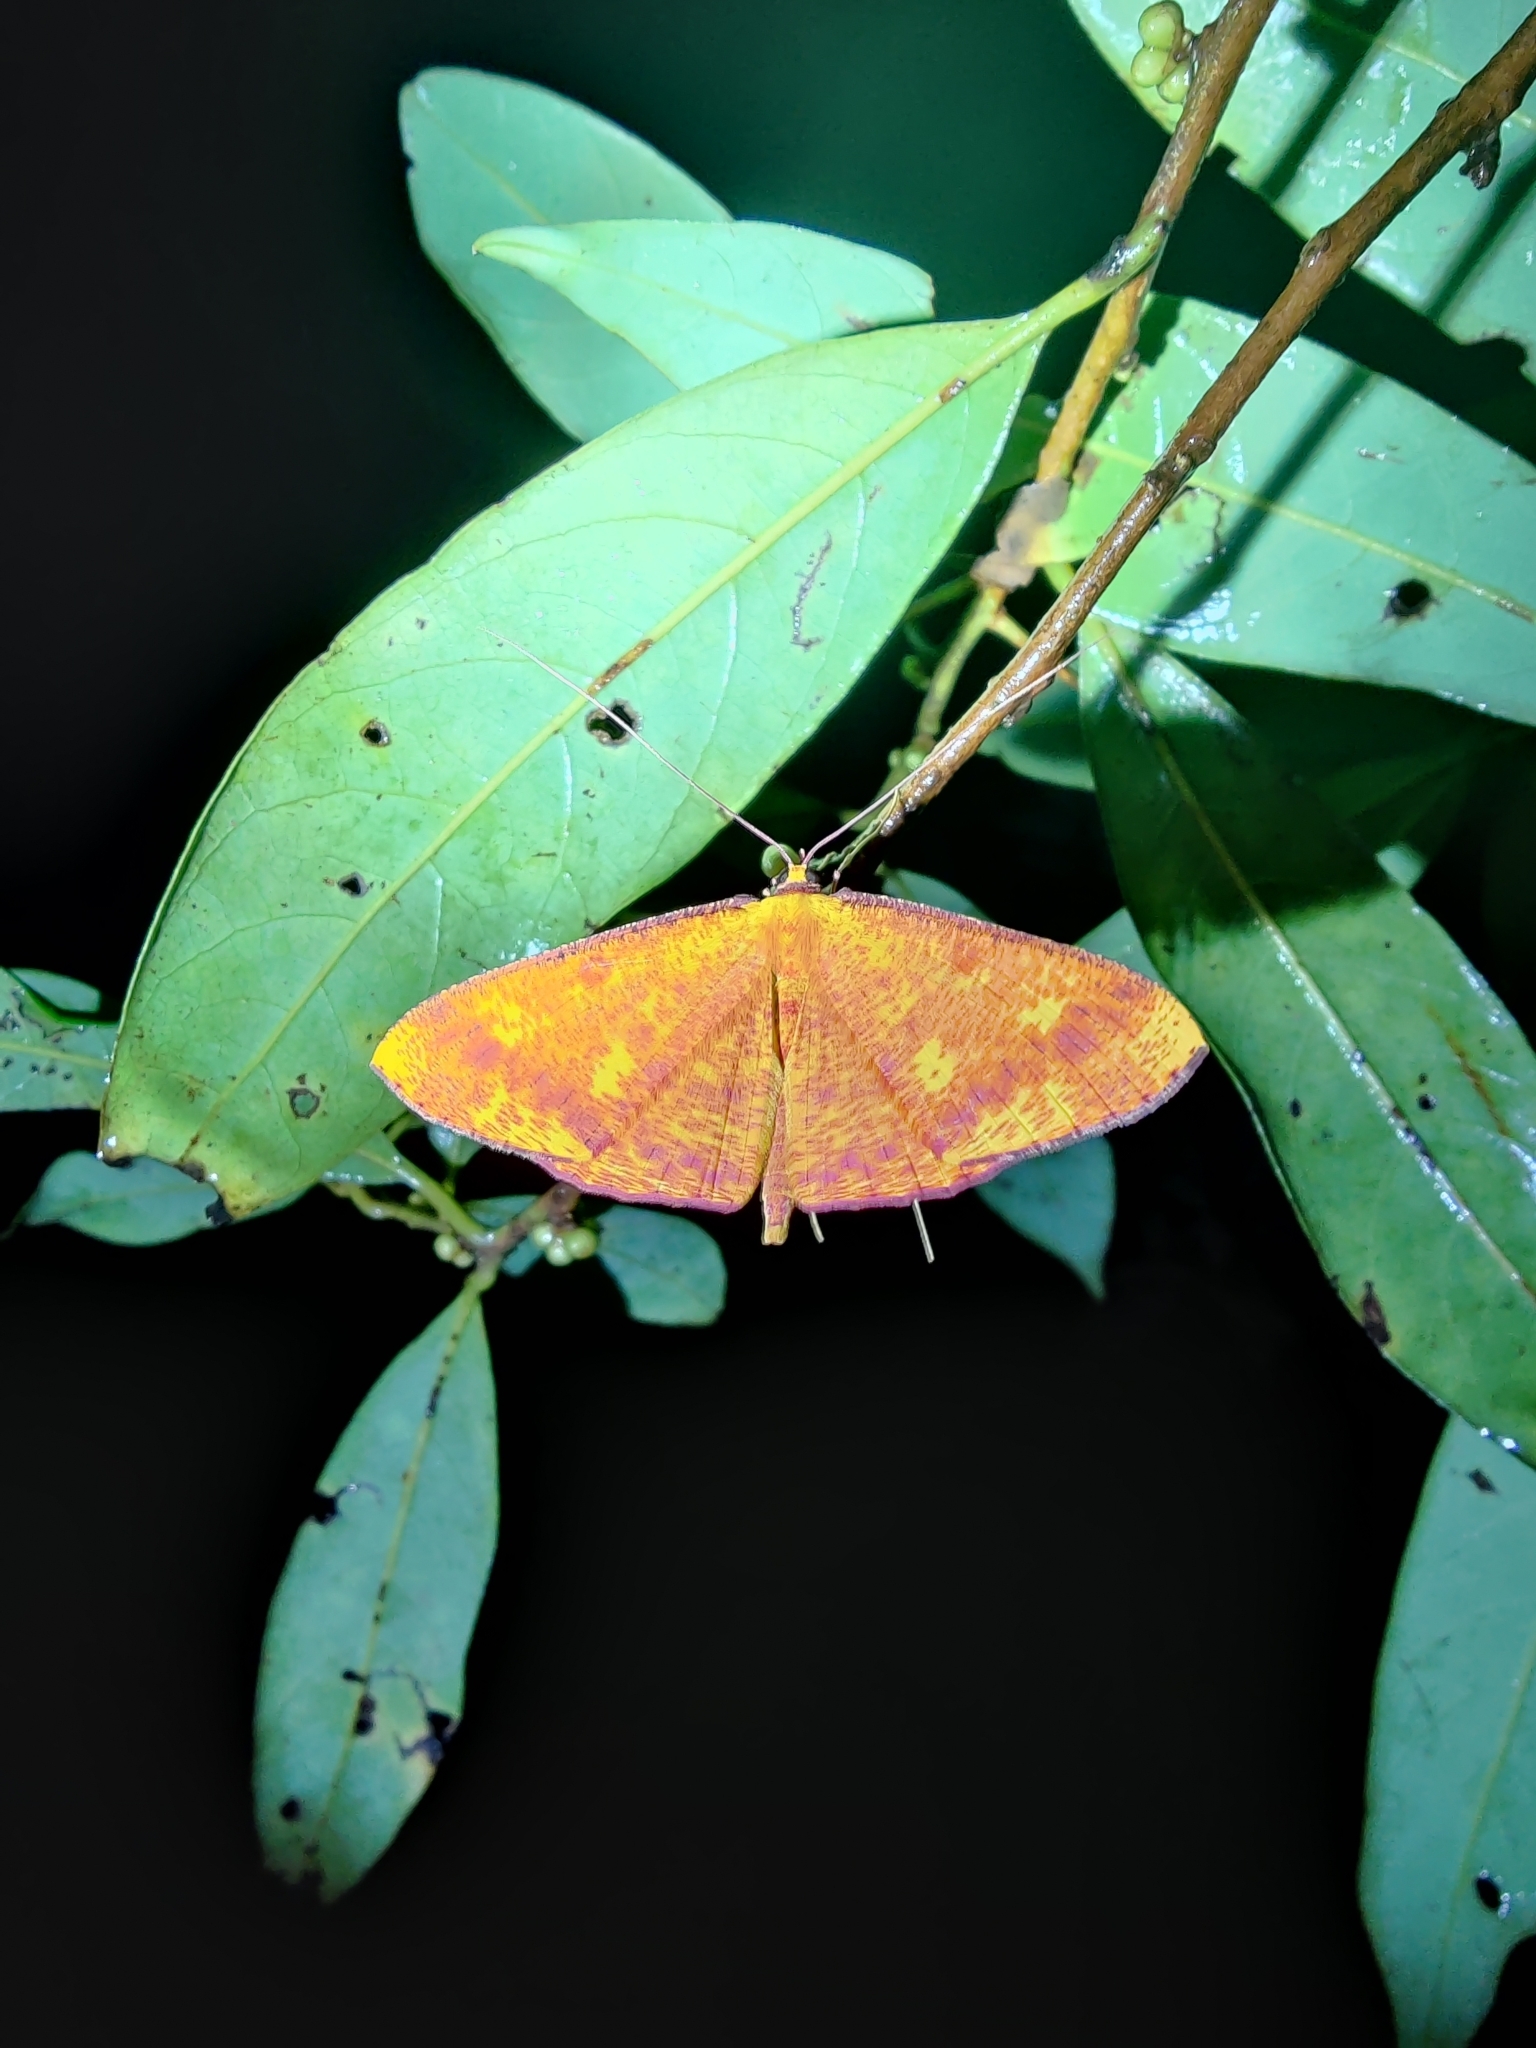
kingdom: Animalia
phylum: Arthropoda
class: Insecta
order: Lepidoptera
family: Geometridae
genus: Eumelea
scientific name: Eumelea ludovicata
